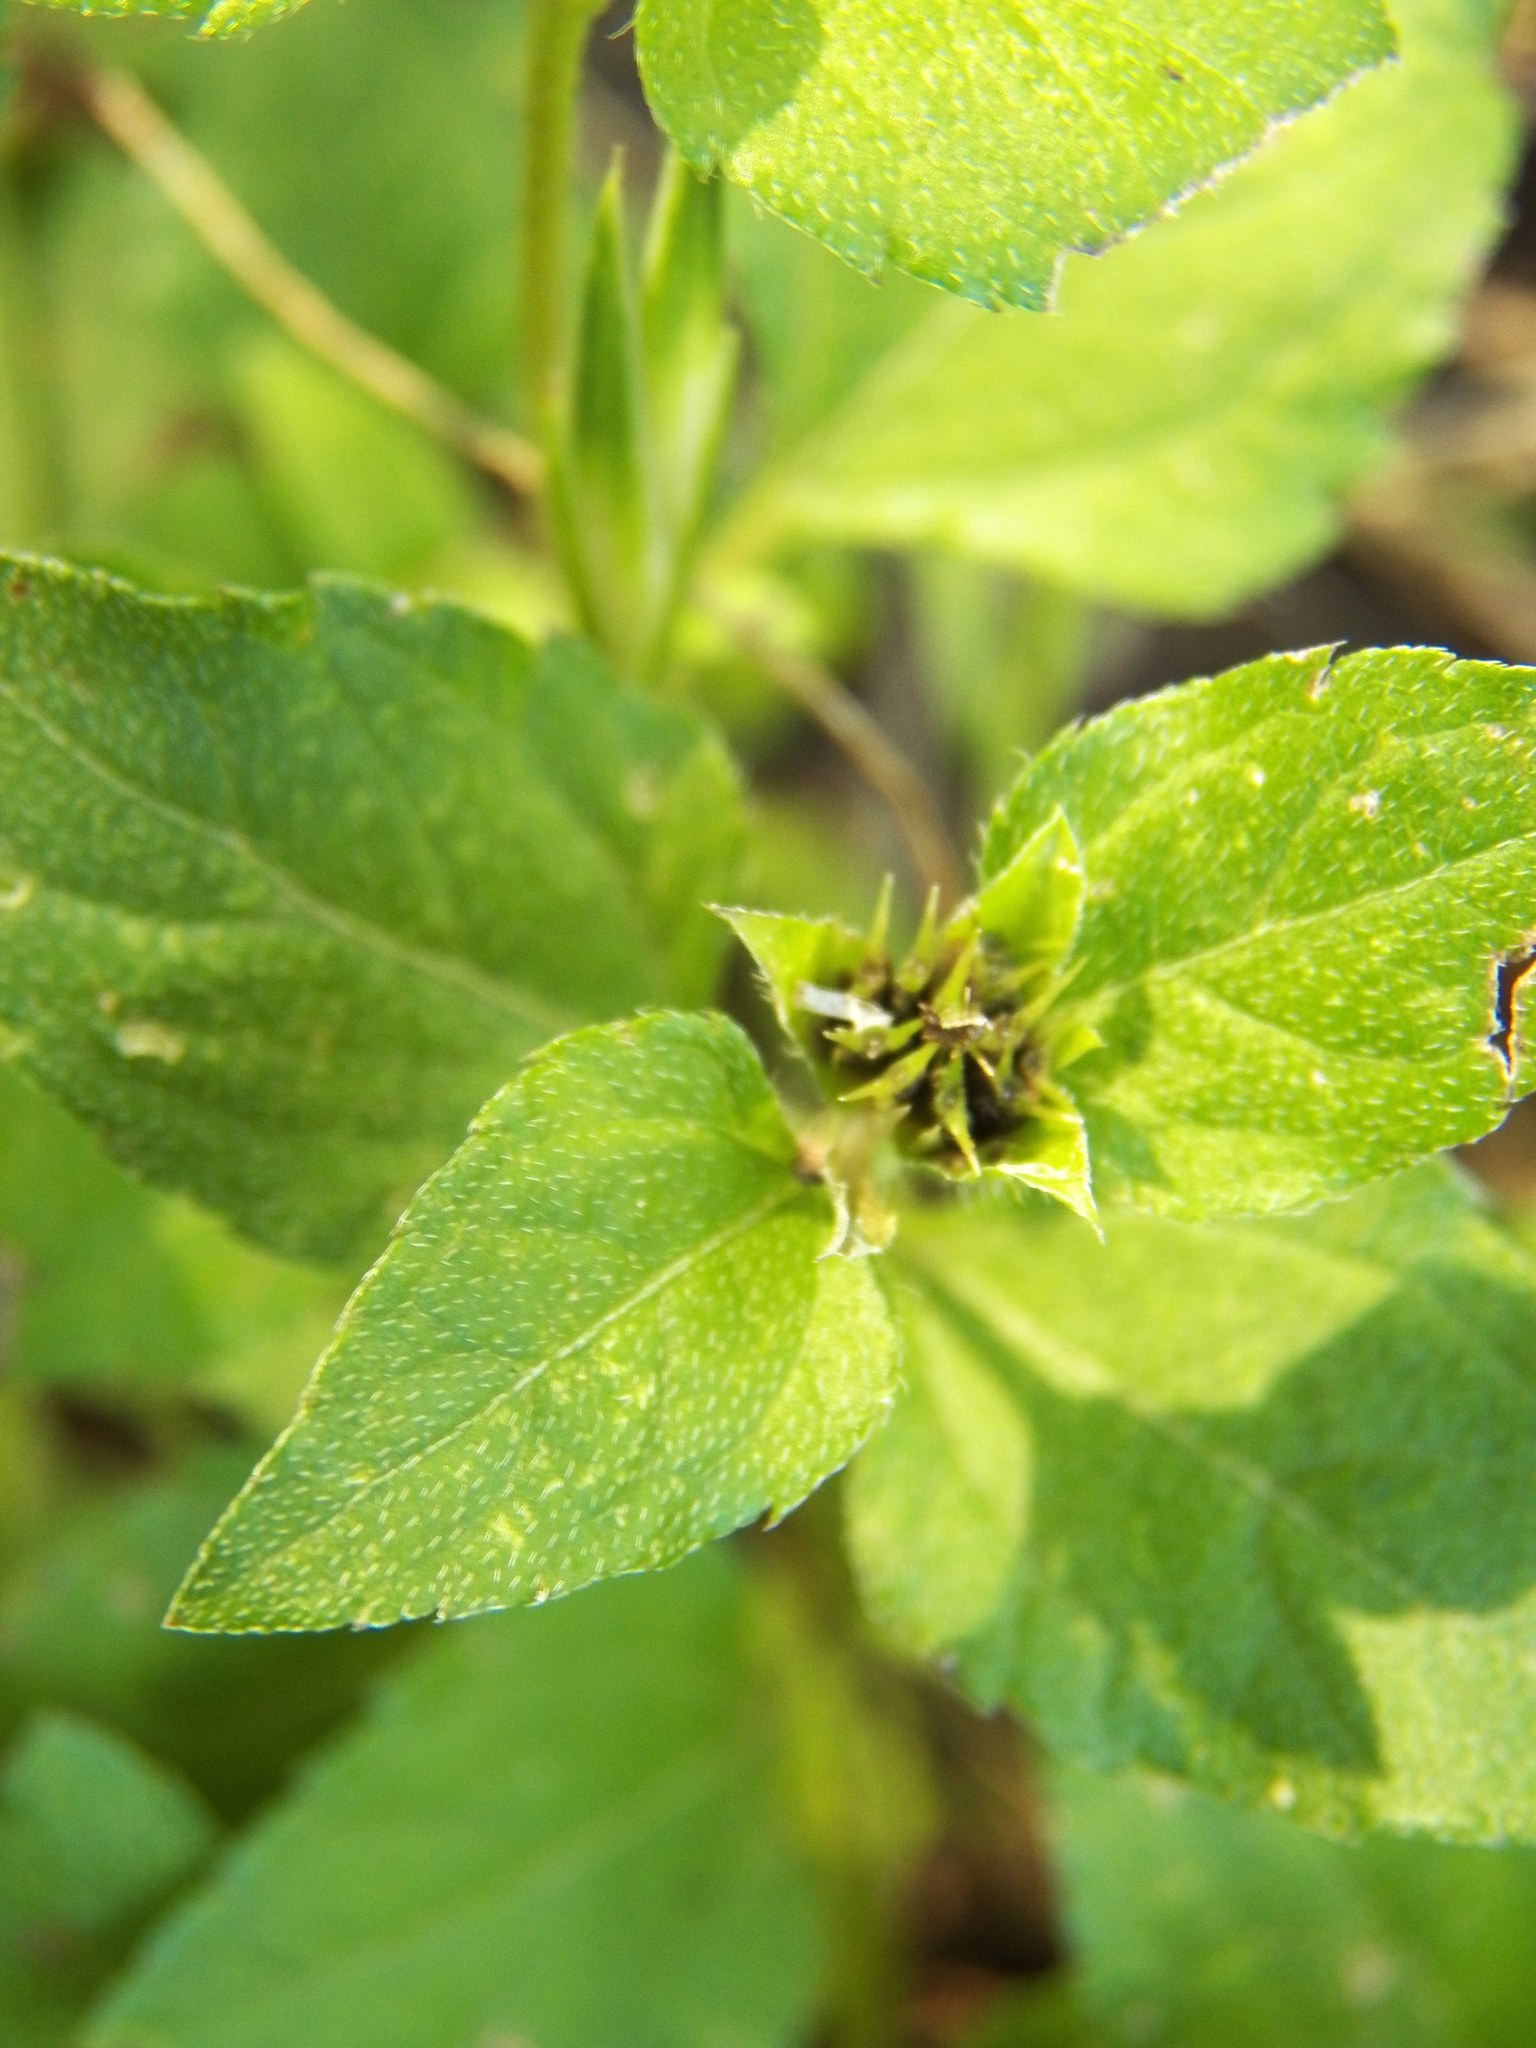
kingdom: Plantae
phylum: Tracheophyta
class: Magnoliopsida
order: Asterales
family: Asteraceae
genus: Calyptocarpus
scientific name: Calyptocarpus vialis
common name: Straggler daisy
